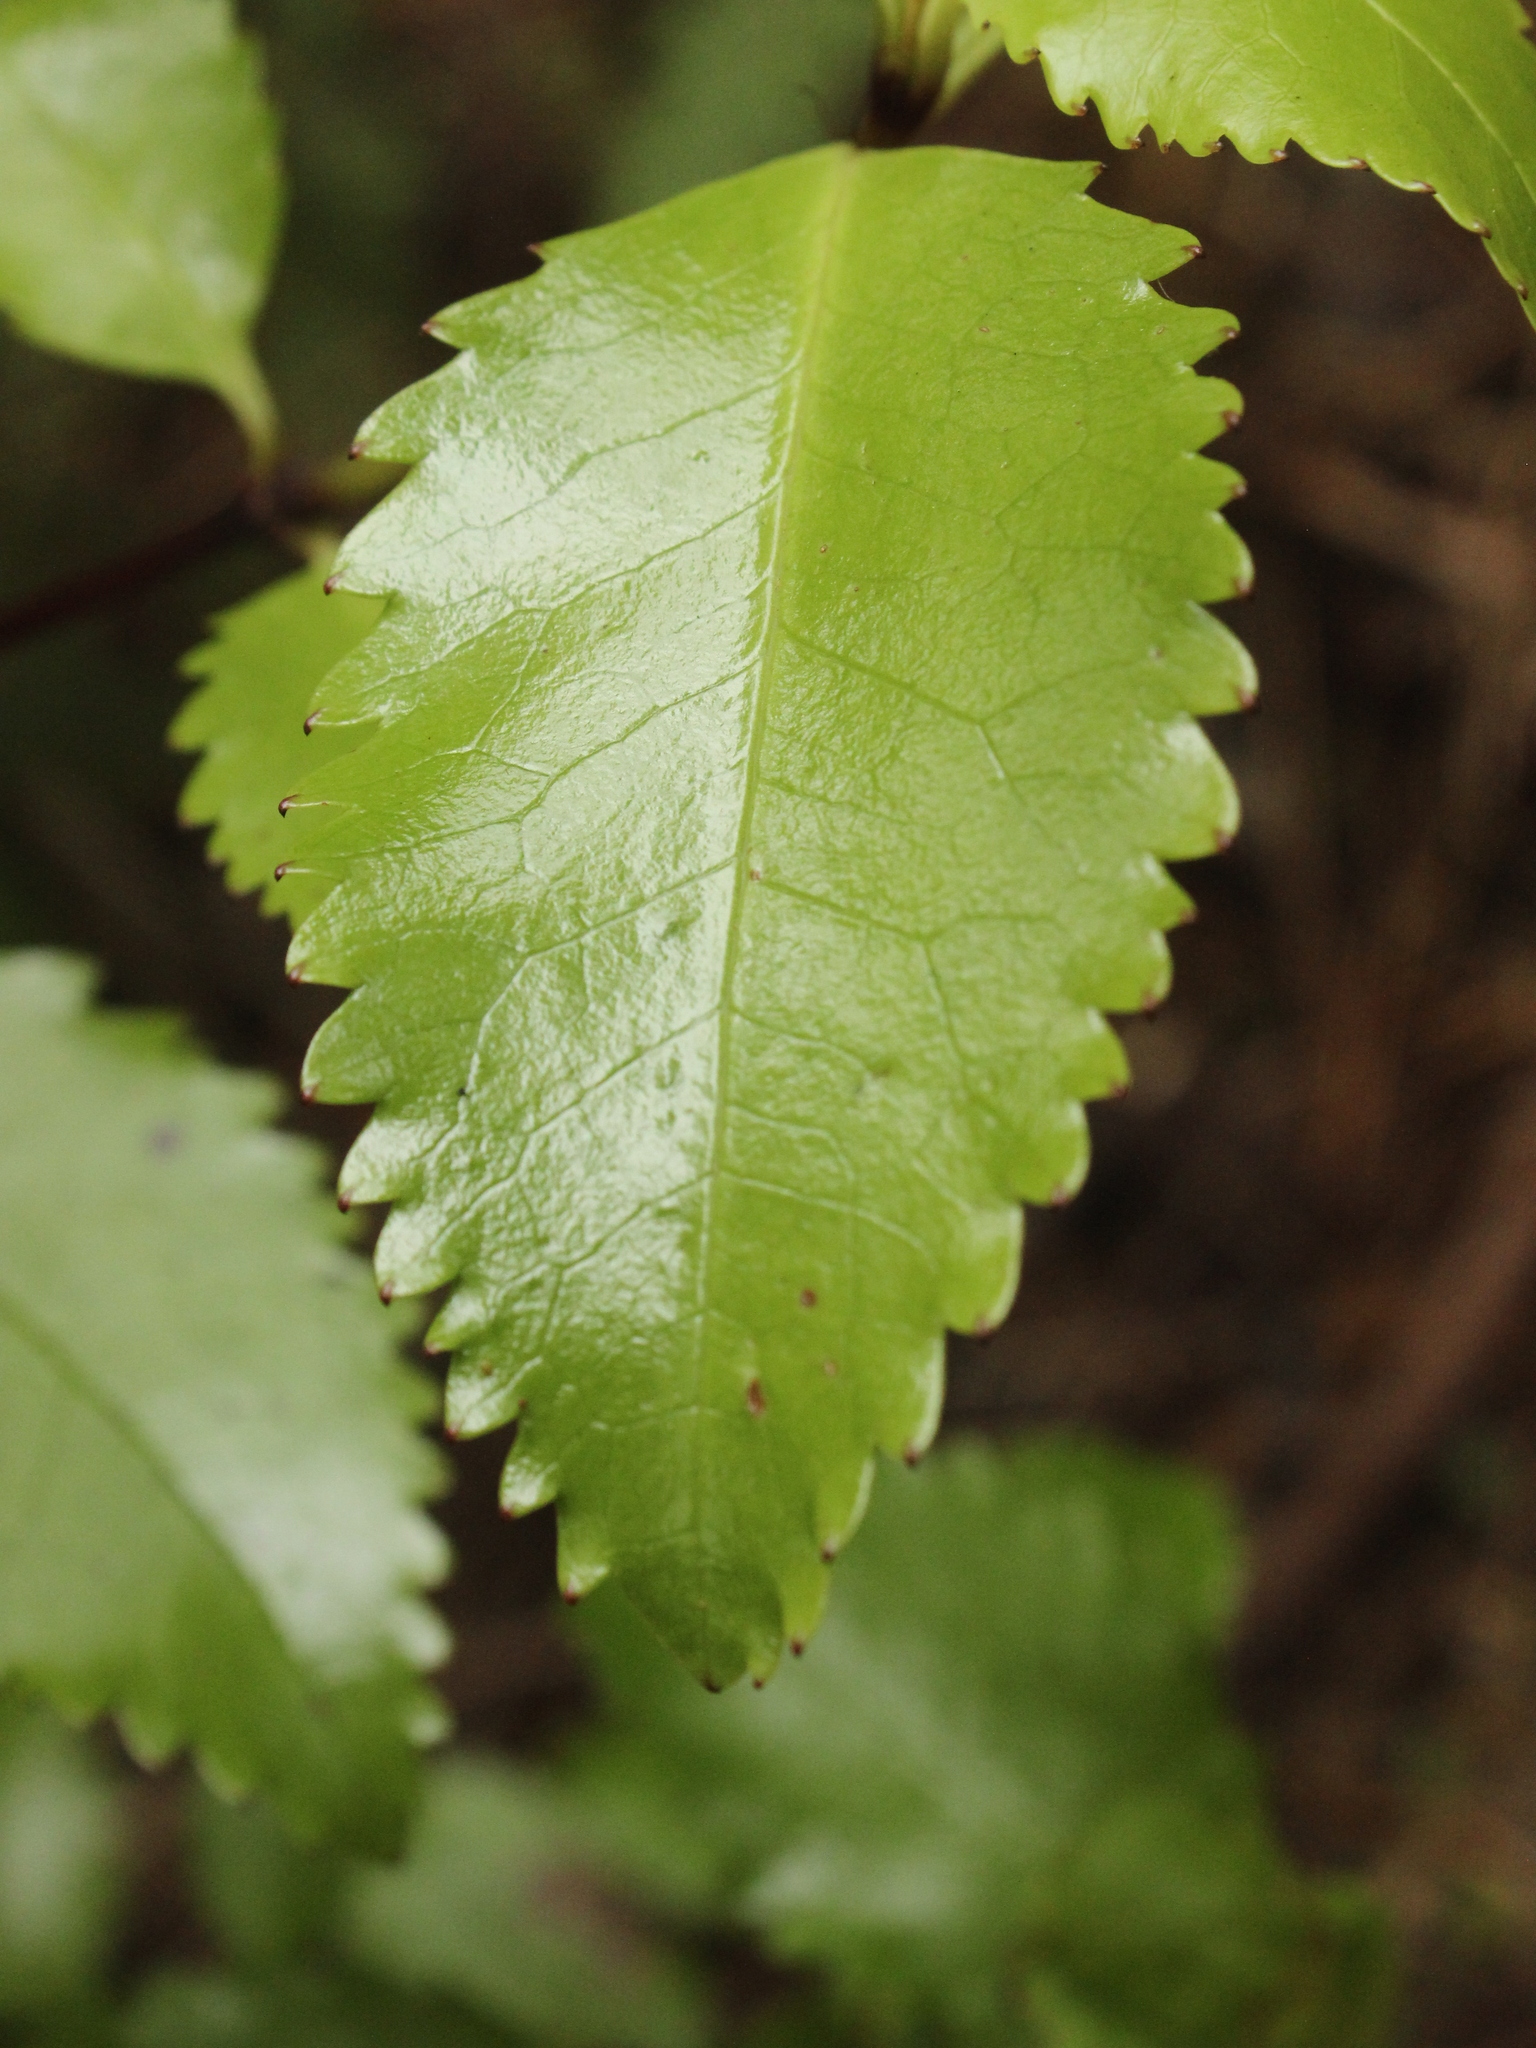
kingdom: Plantae
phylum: Tracheophyta
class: Magnoliopsida
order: Chloranthales
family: Chloranthaceae
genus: Ascarina
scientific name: Ascarina lucida
